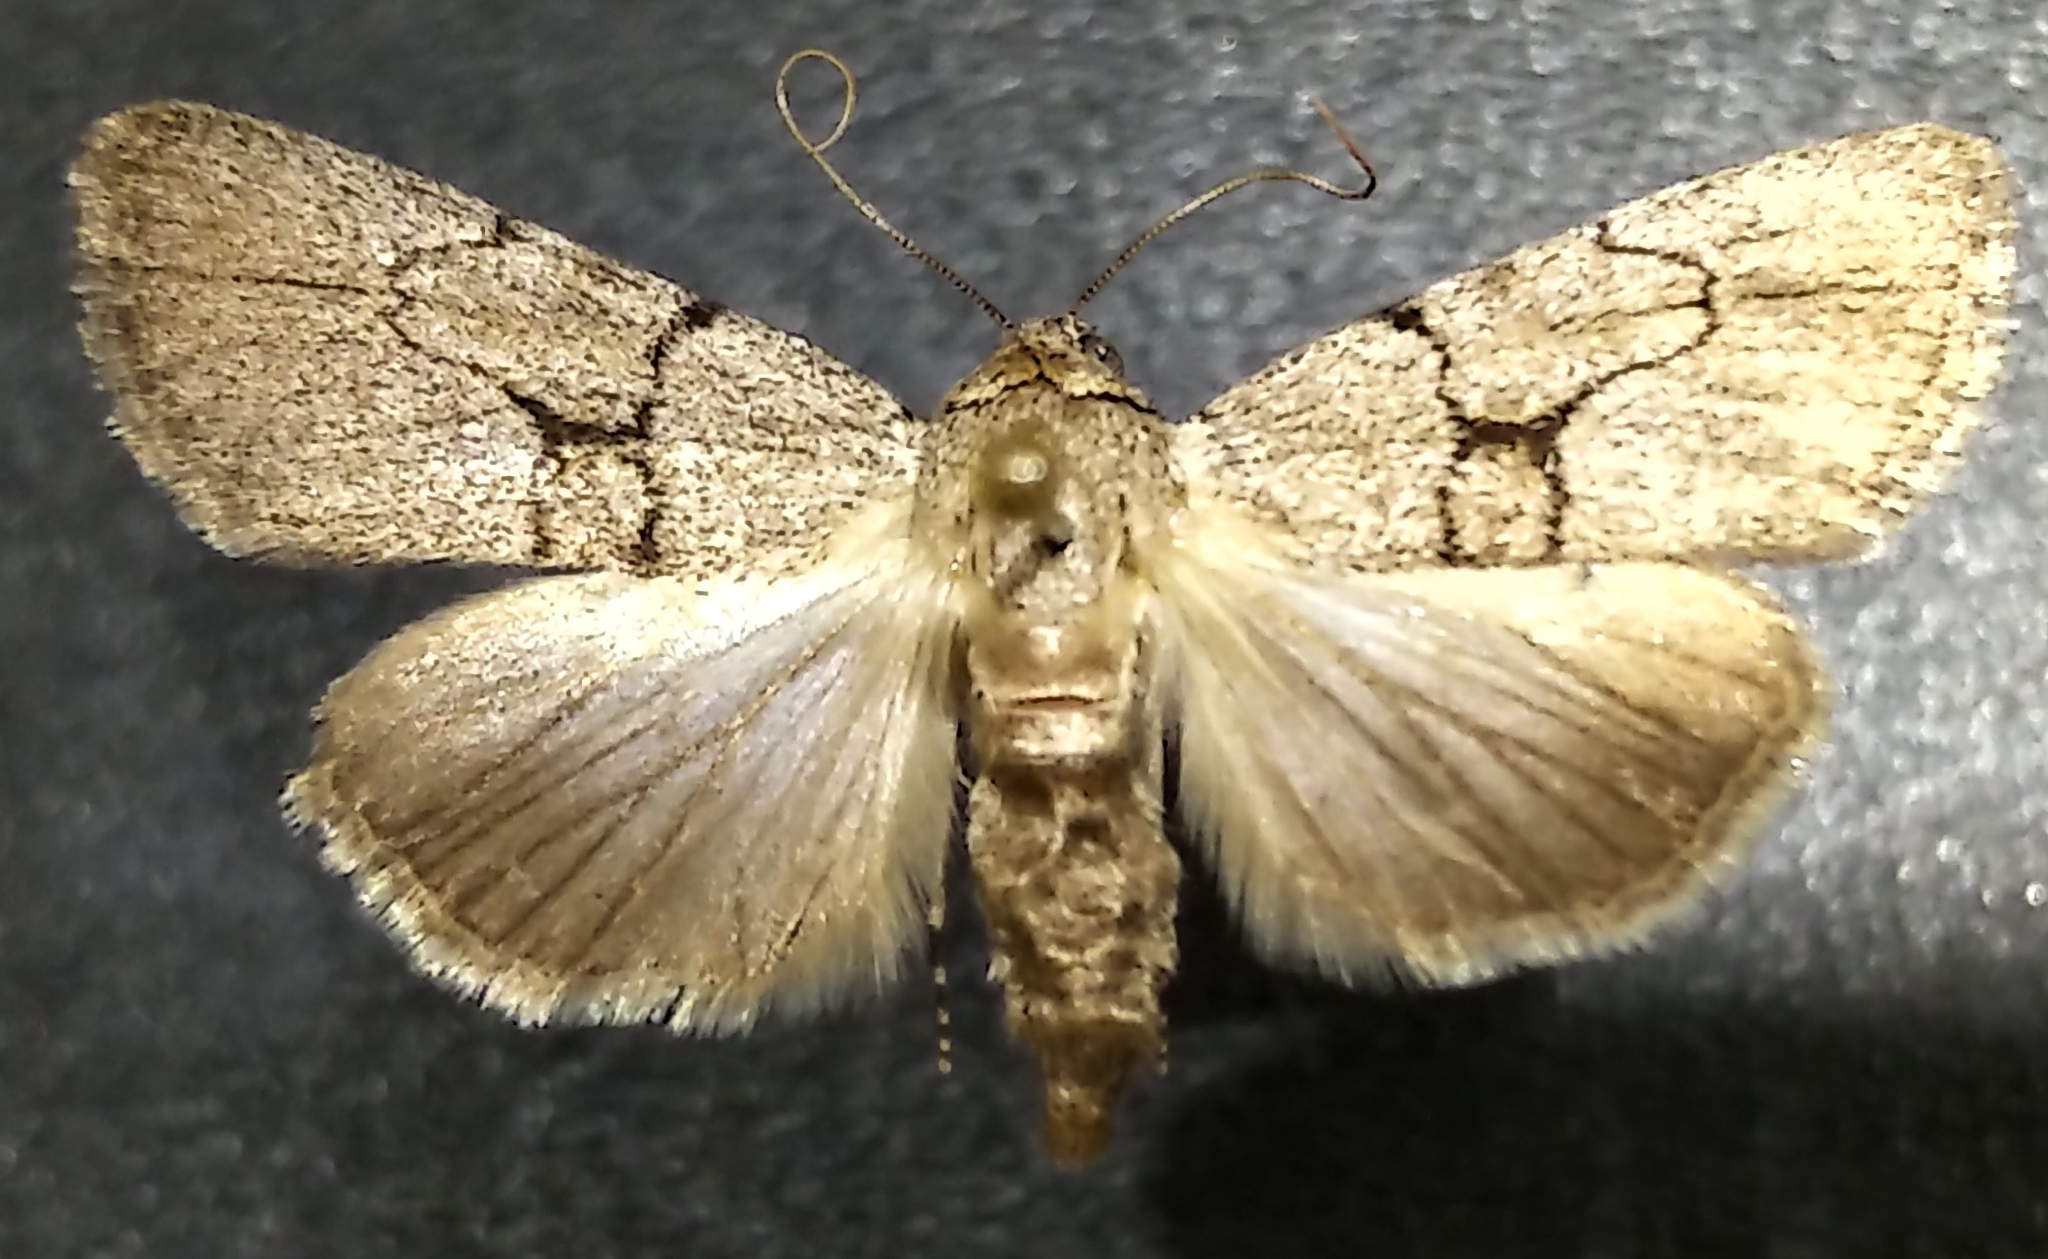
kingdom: Animalia
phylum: Arthropoda
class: Insecta
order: Lepidoptera
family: Noctuidae
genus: Sympistis
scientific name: Sympistis pallidior
